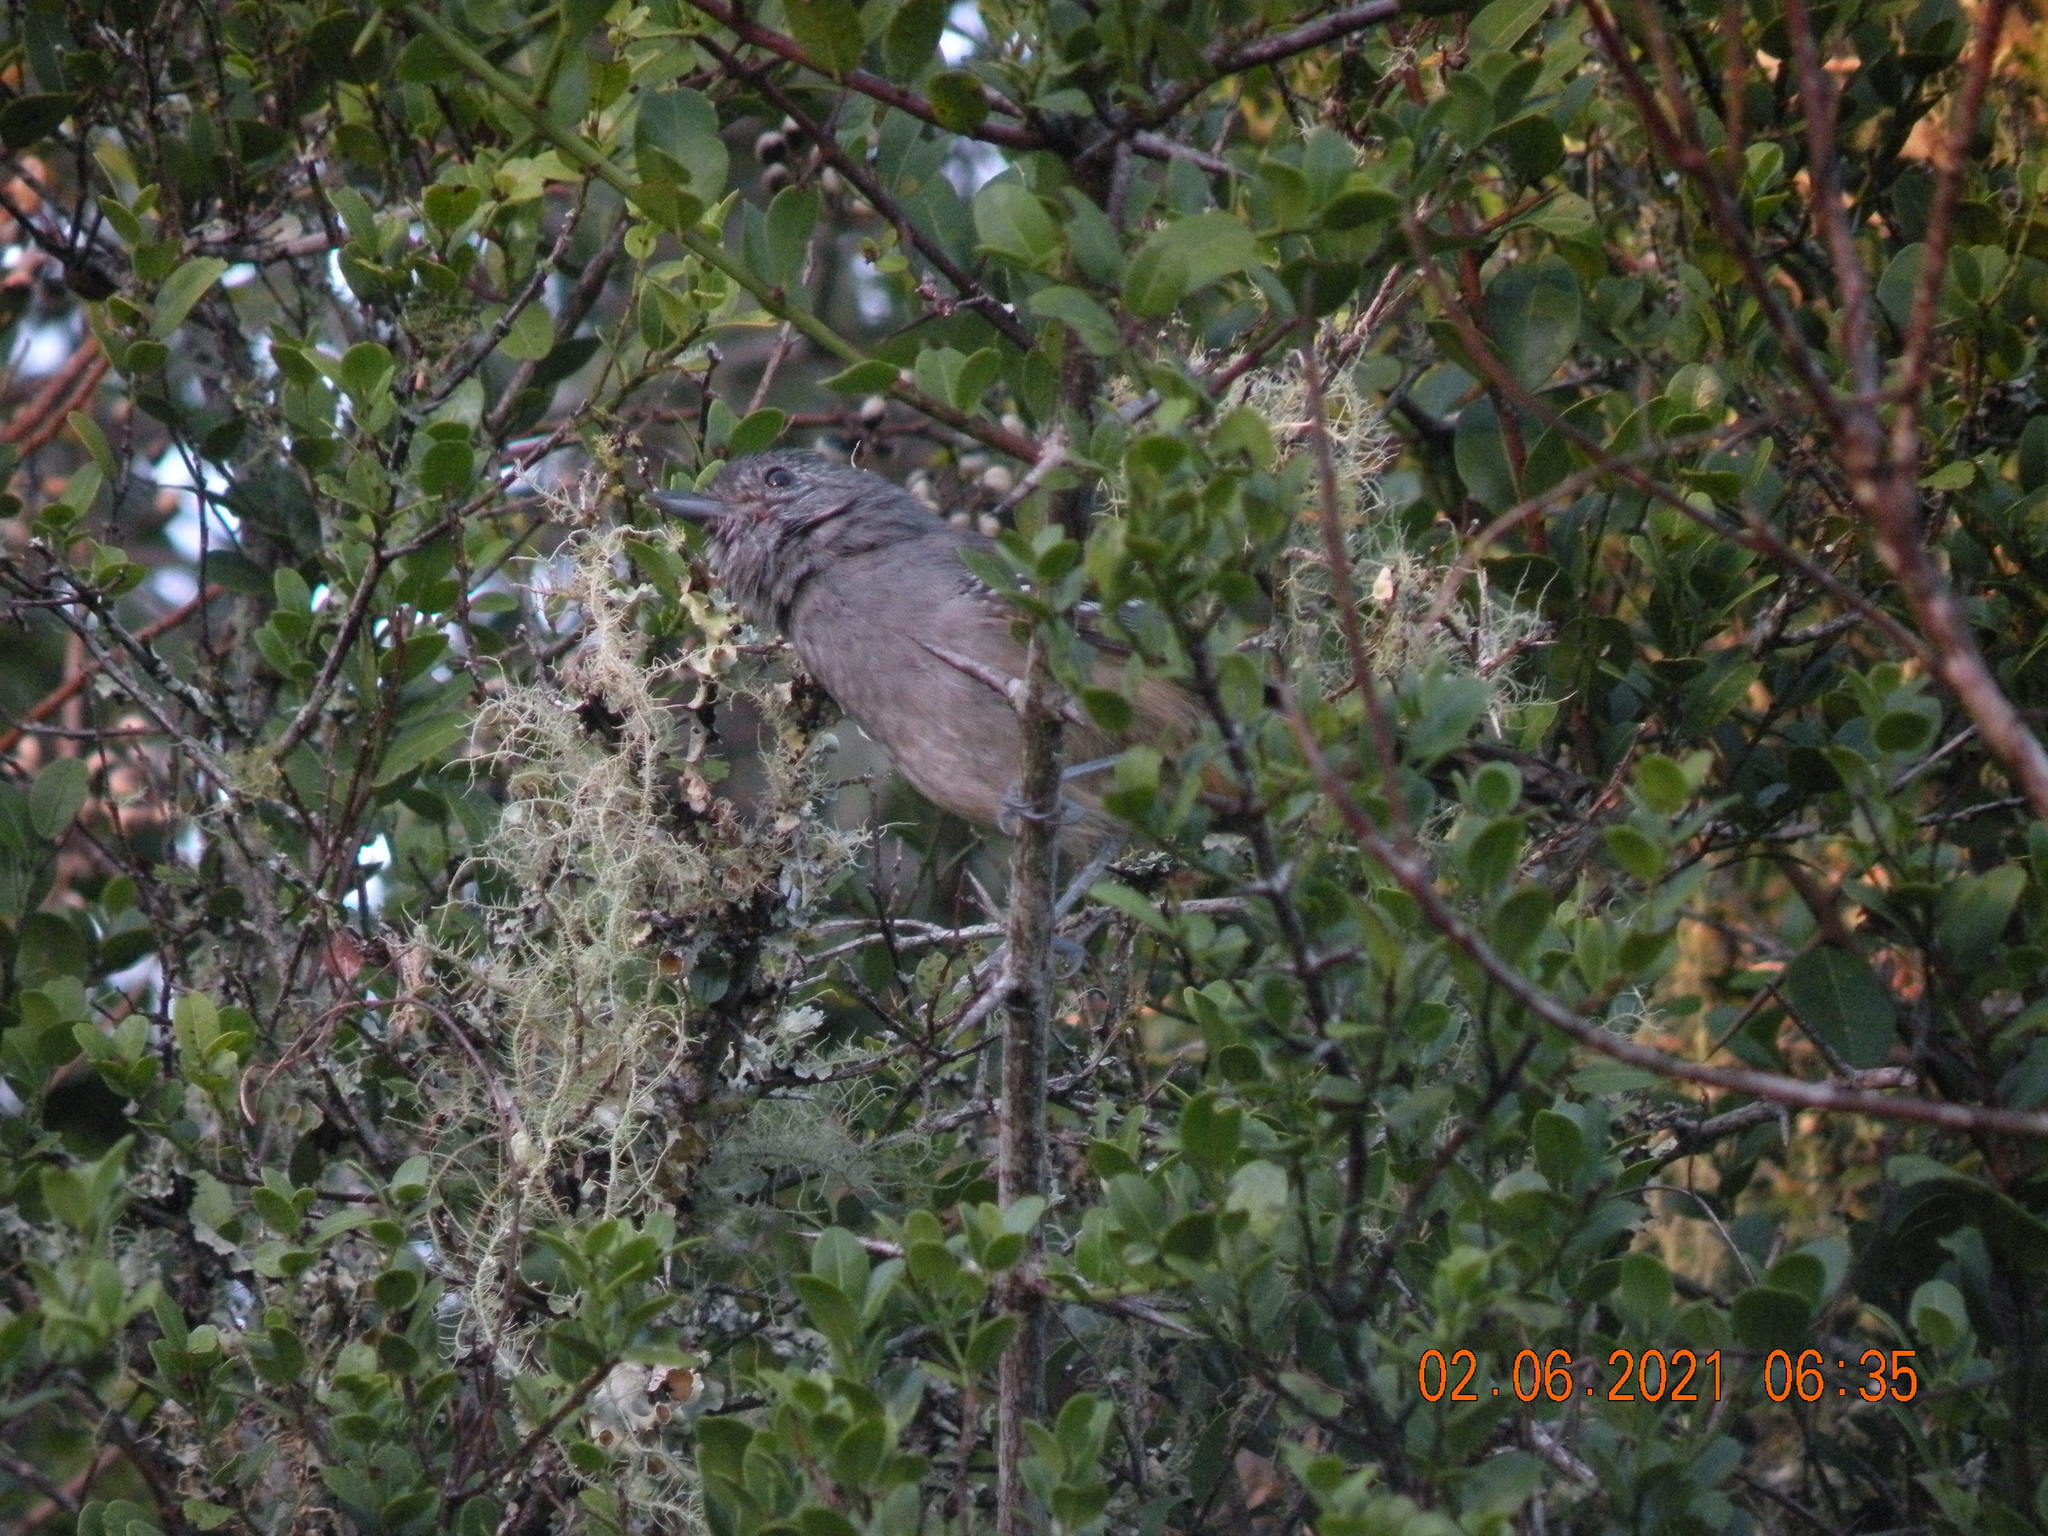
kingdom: Animalia
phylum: Chordata
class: Aves
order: Passeriformes
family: Thamnophilidae
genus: Thamnophilus
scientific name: Thamnophilus caerulescens
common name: Variable antshrike
